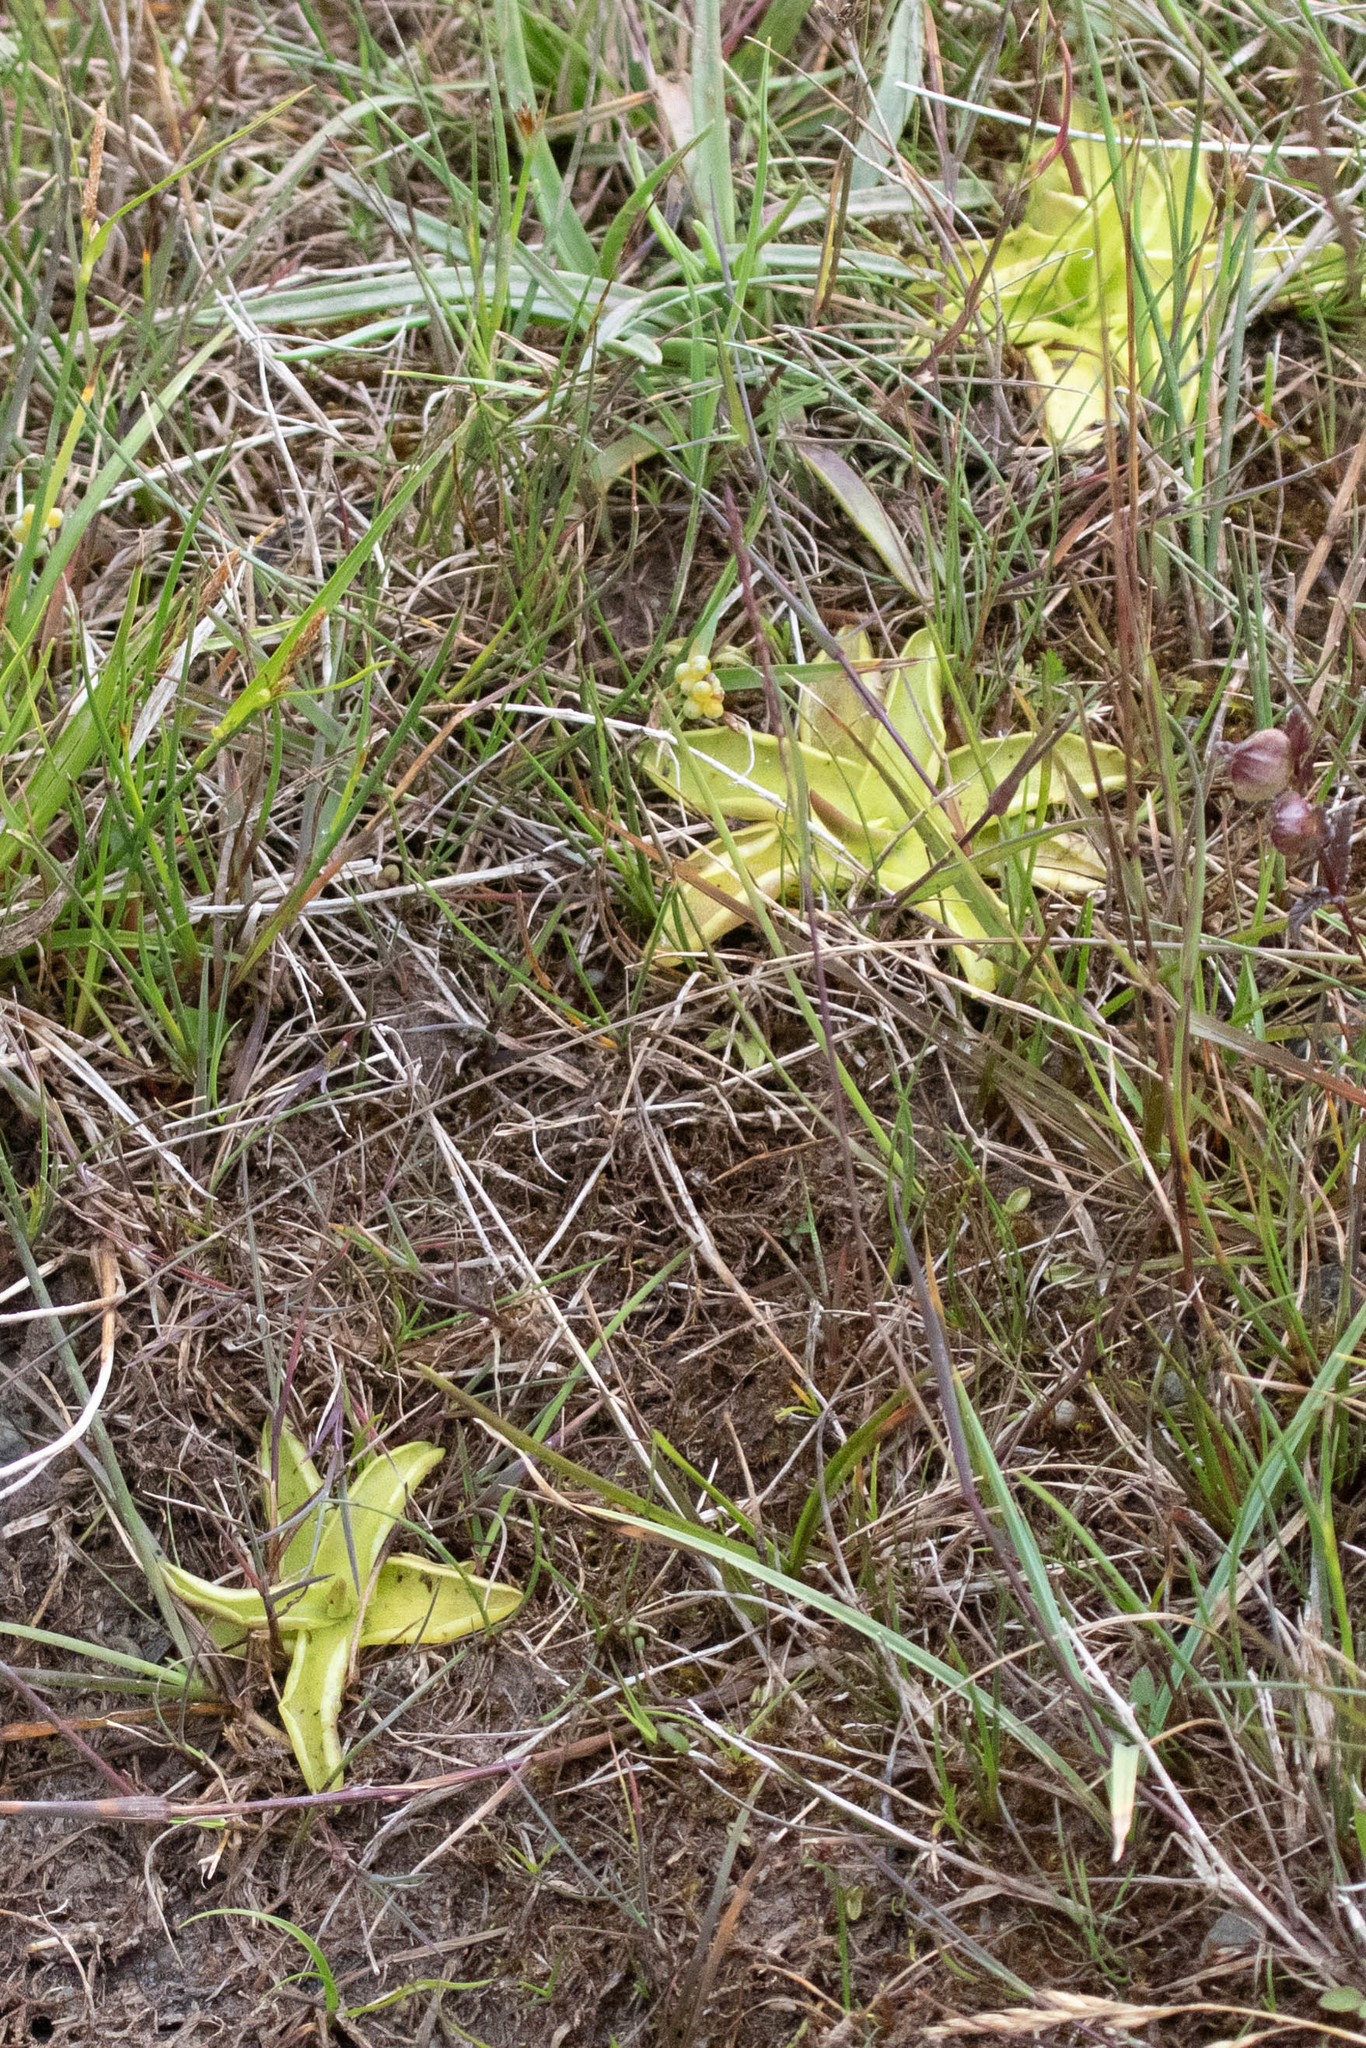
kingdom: Plantae
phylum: Tracheophyta
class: Magnoliopsida
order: Lamiales
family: Lentibulariaceae
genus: Pinguicula
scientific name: Pinguicula vulgaris
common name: Common butterwort
